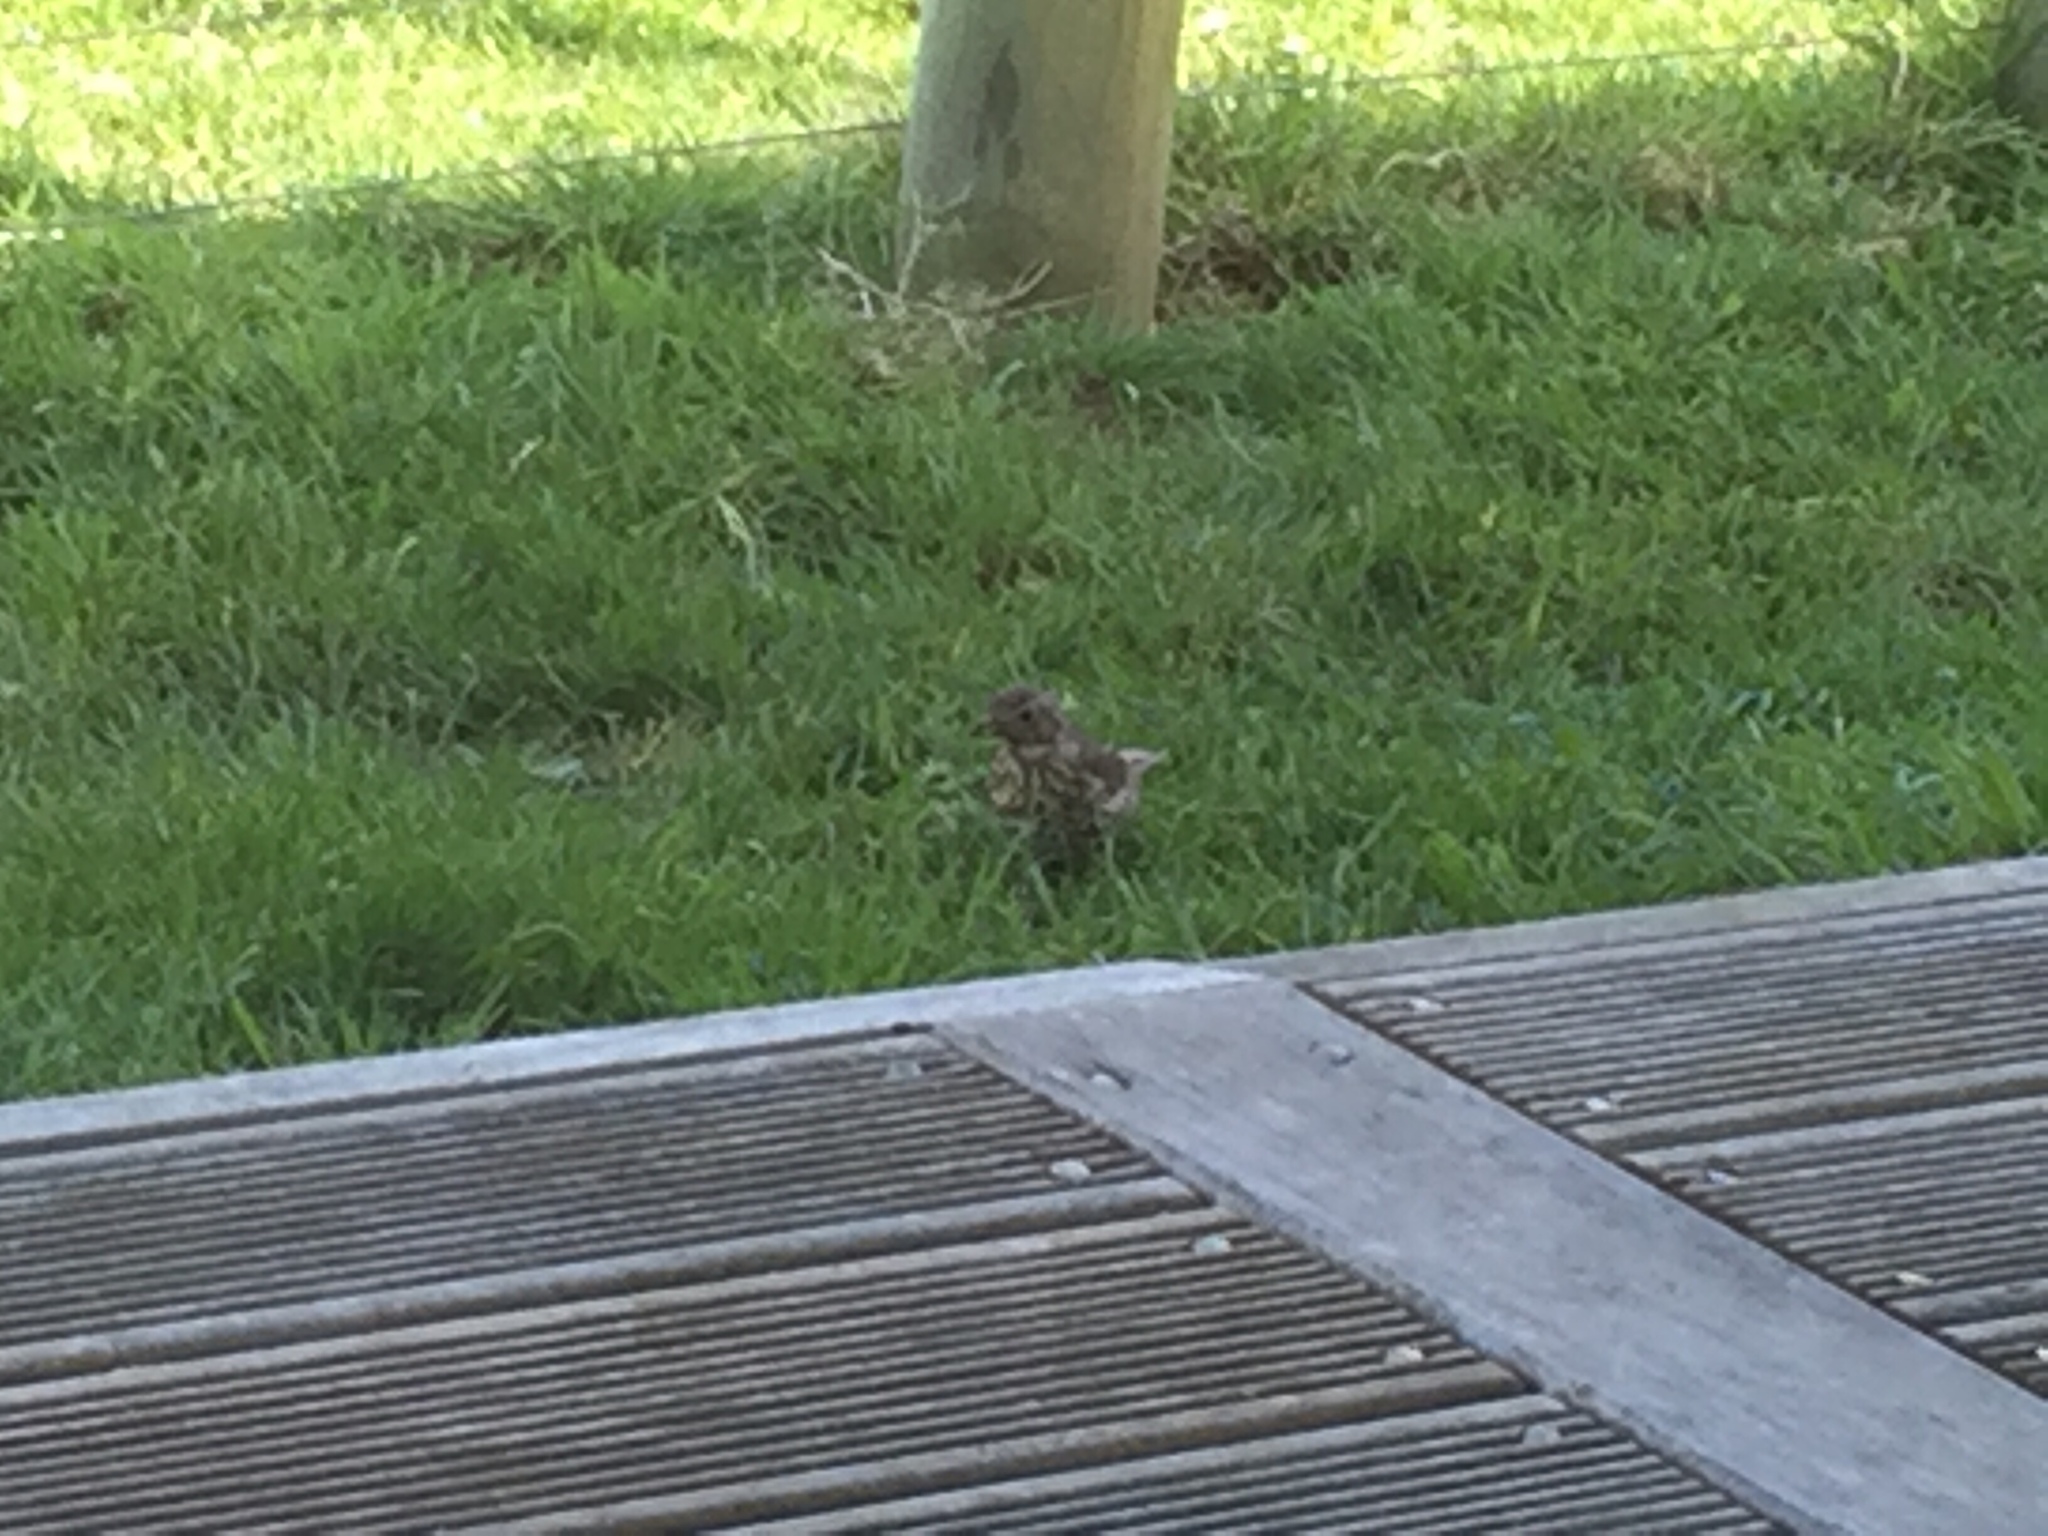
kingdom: Animalia
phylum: Chordata
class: Aves
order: Passeriformes
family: Turdidae
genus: Turdus
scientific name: Turdus philomelos
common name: Song thrush
